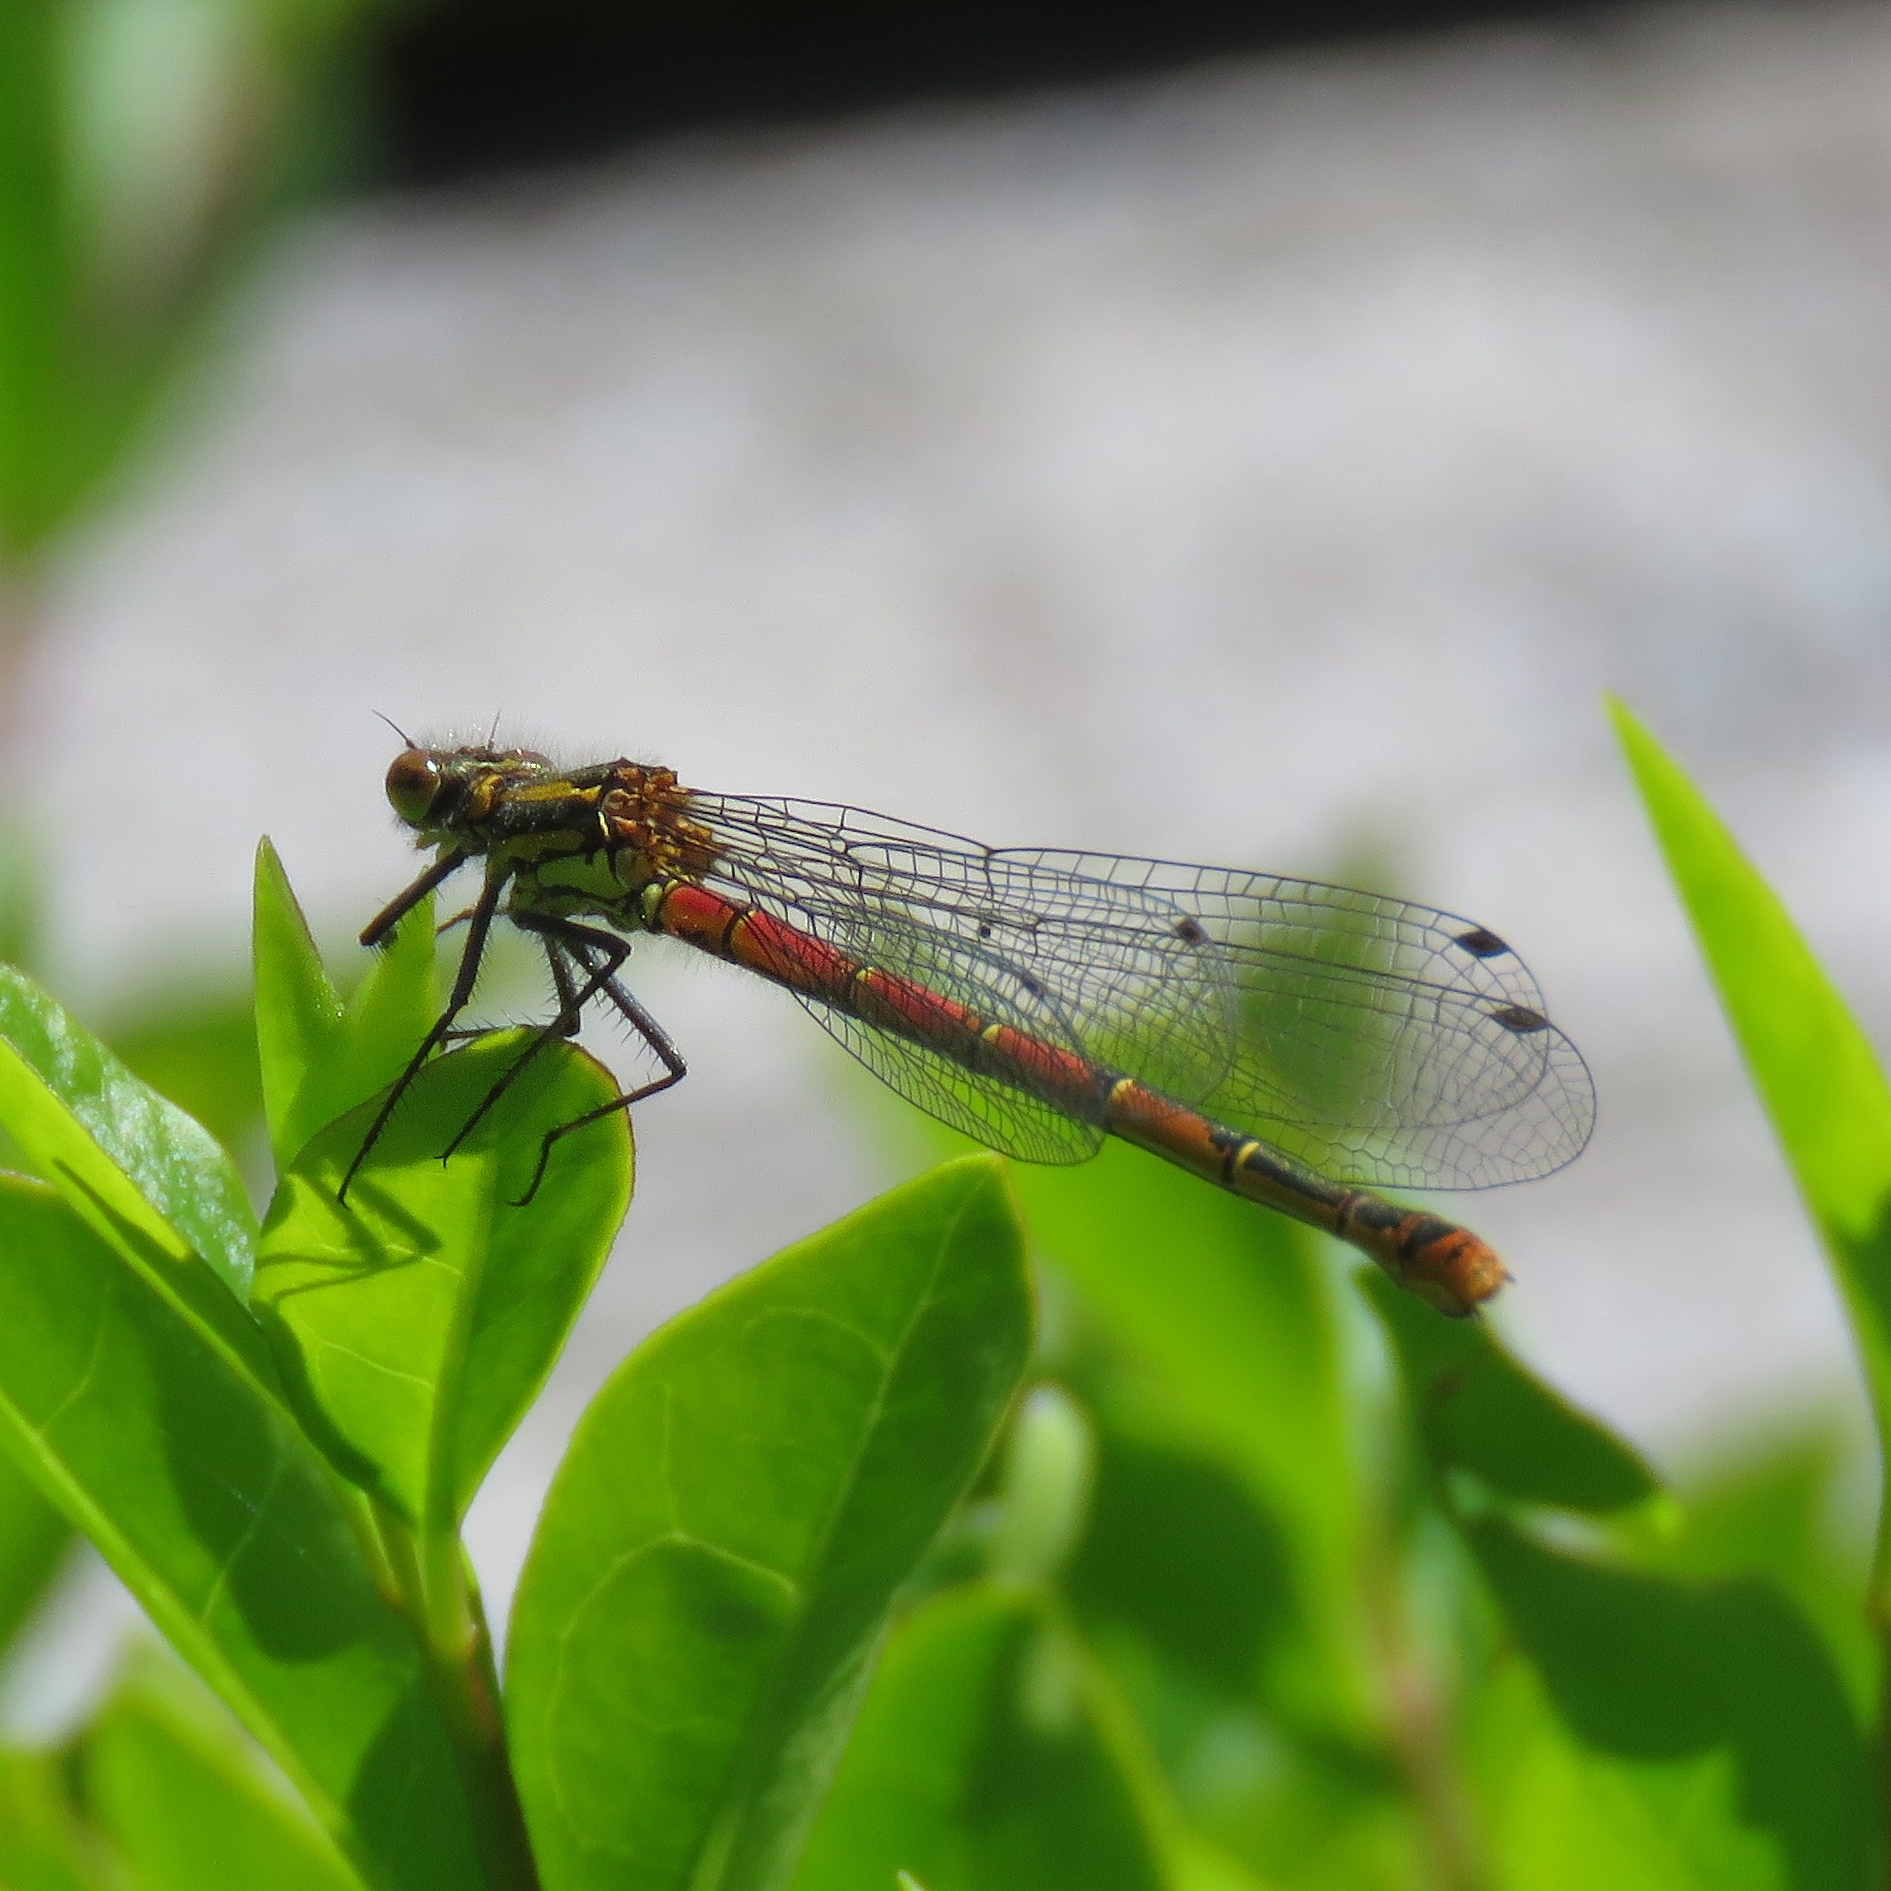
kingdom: Animalia
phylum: Arthropoda
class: Insecta
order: Odonata
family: Coenagrionidae
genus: Pyrrhosoma
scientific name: Pyrrhosoma nymphula
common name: Large red damsel
